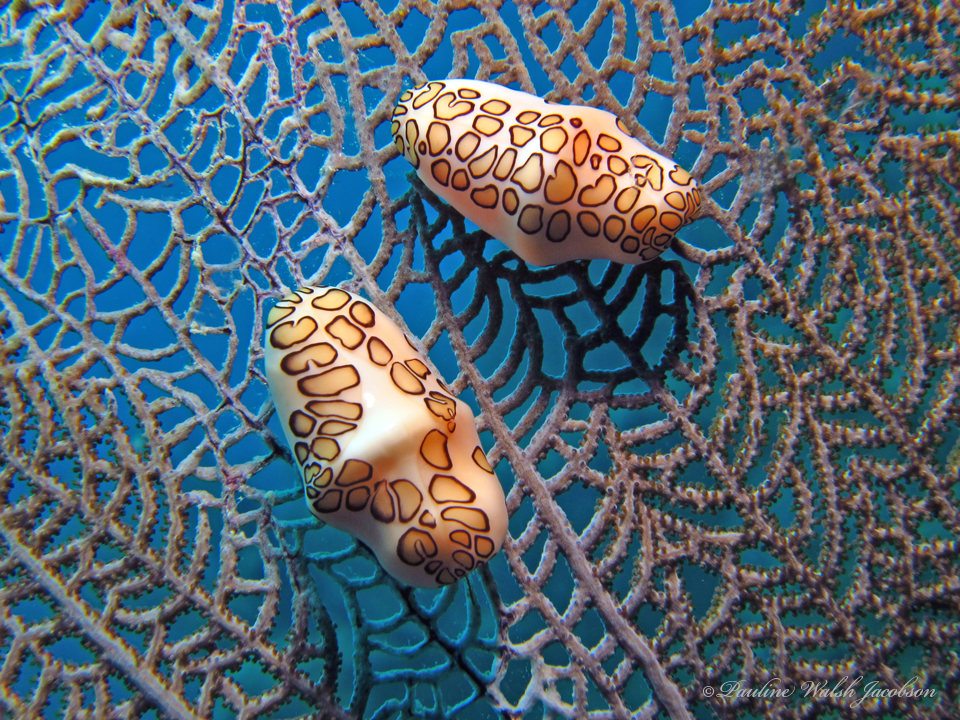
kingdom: Animalia
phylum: Mollusca
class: Gastropoda
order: Littorinimorpha
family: Ovulidae
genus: Cyphoma
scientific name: Cyphoma gibbosum
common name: Flamingo tongue
